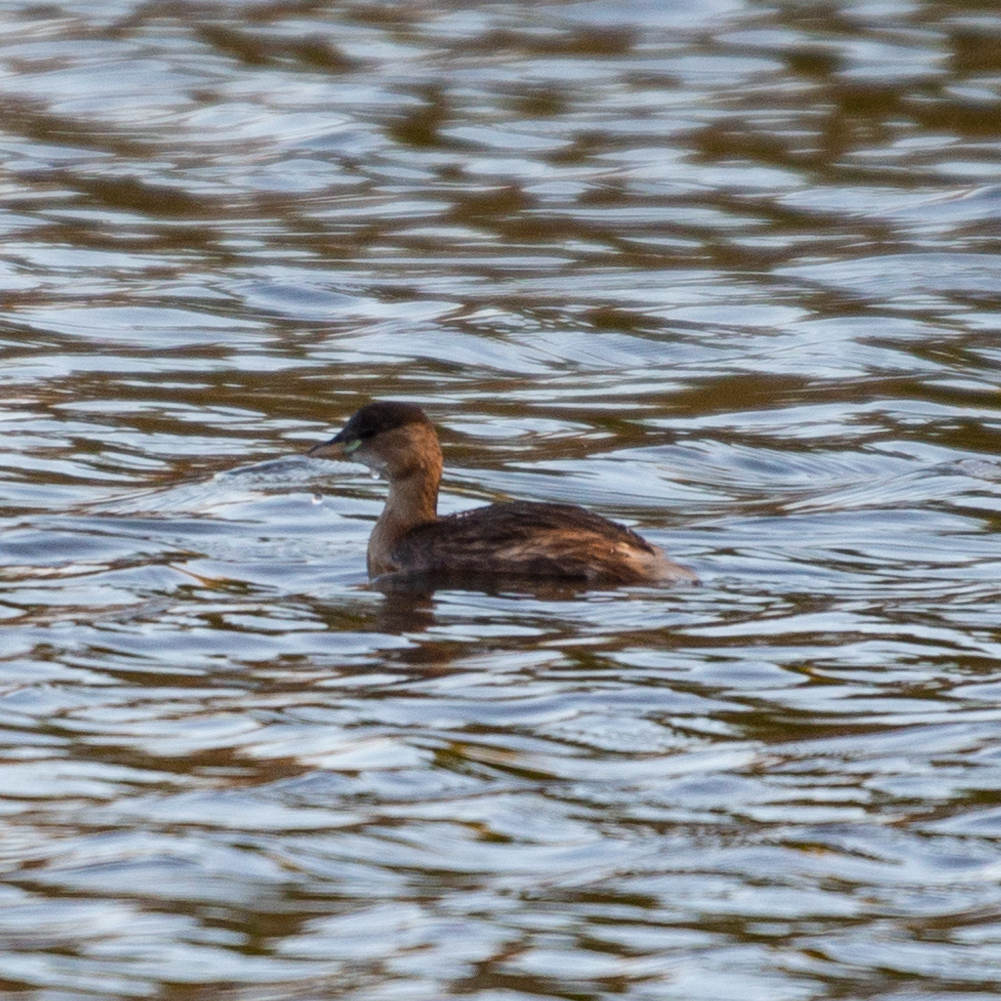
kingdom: Animalia
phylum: Chordata
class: Aves
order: Podicipediformes
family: Podicipedidae
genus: Tachybaptus
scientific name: Tachybaptus ruficollis
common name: Little grebe
